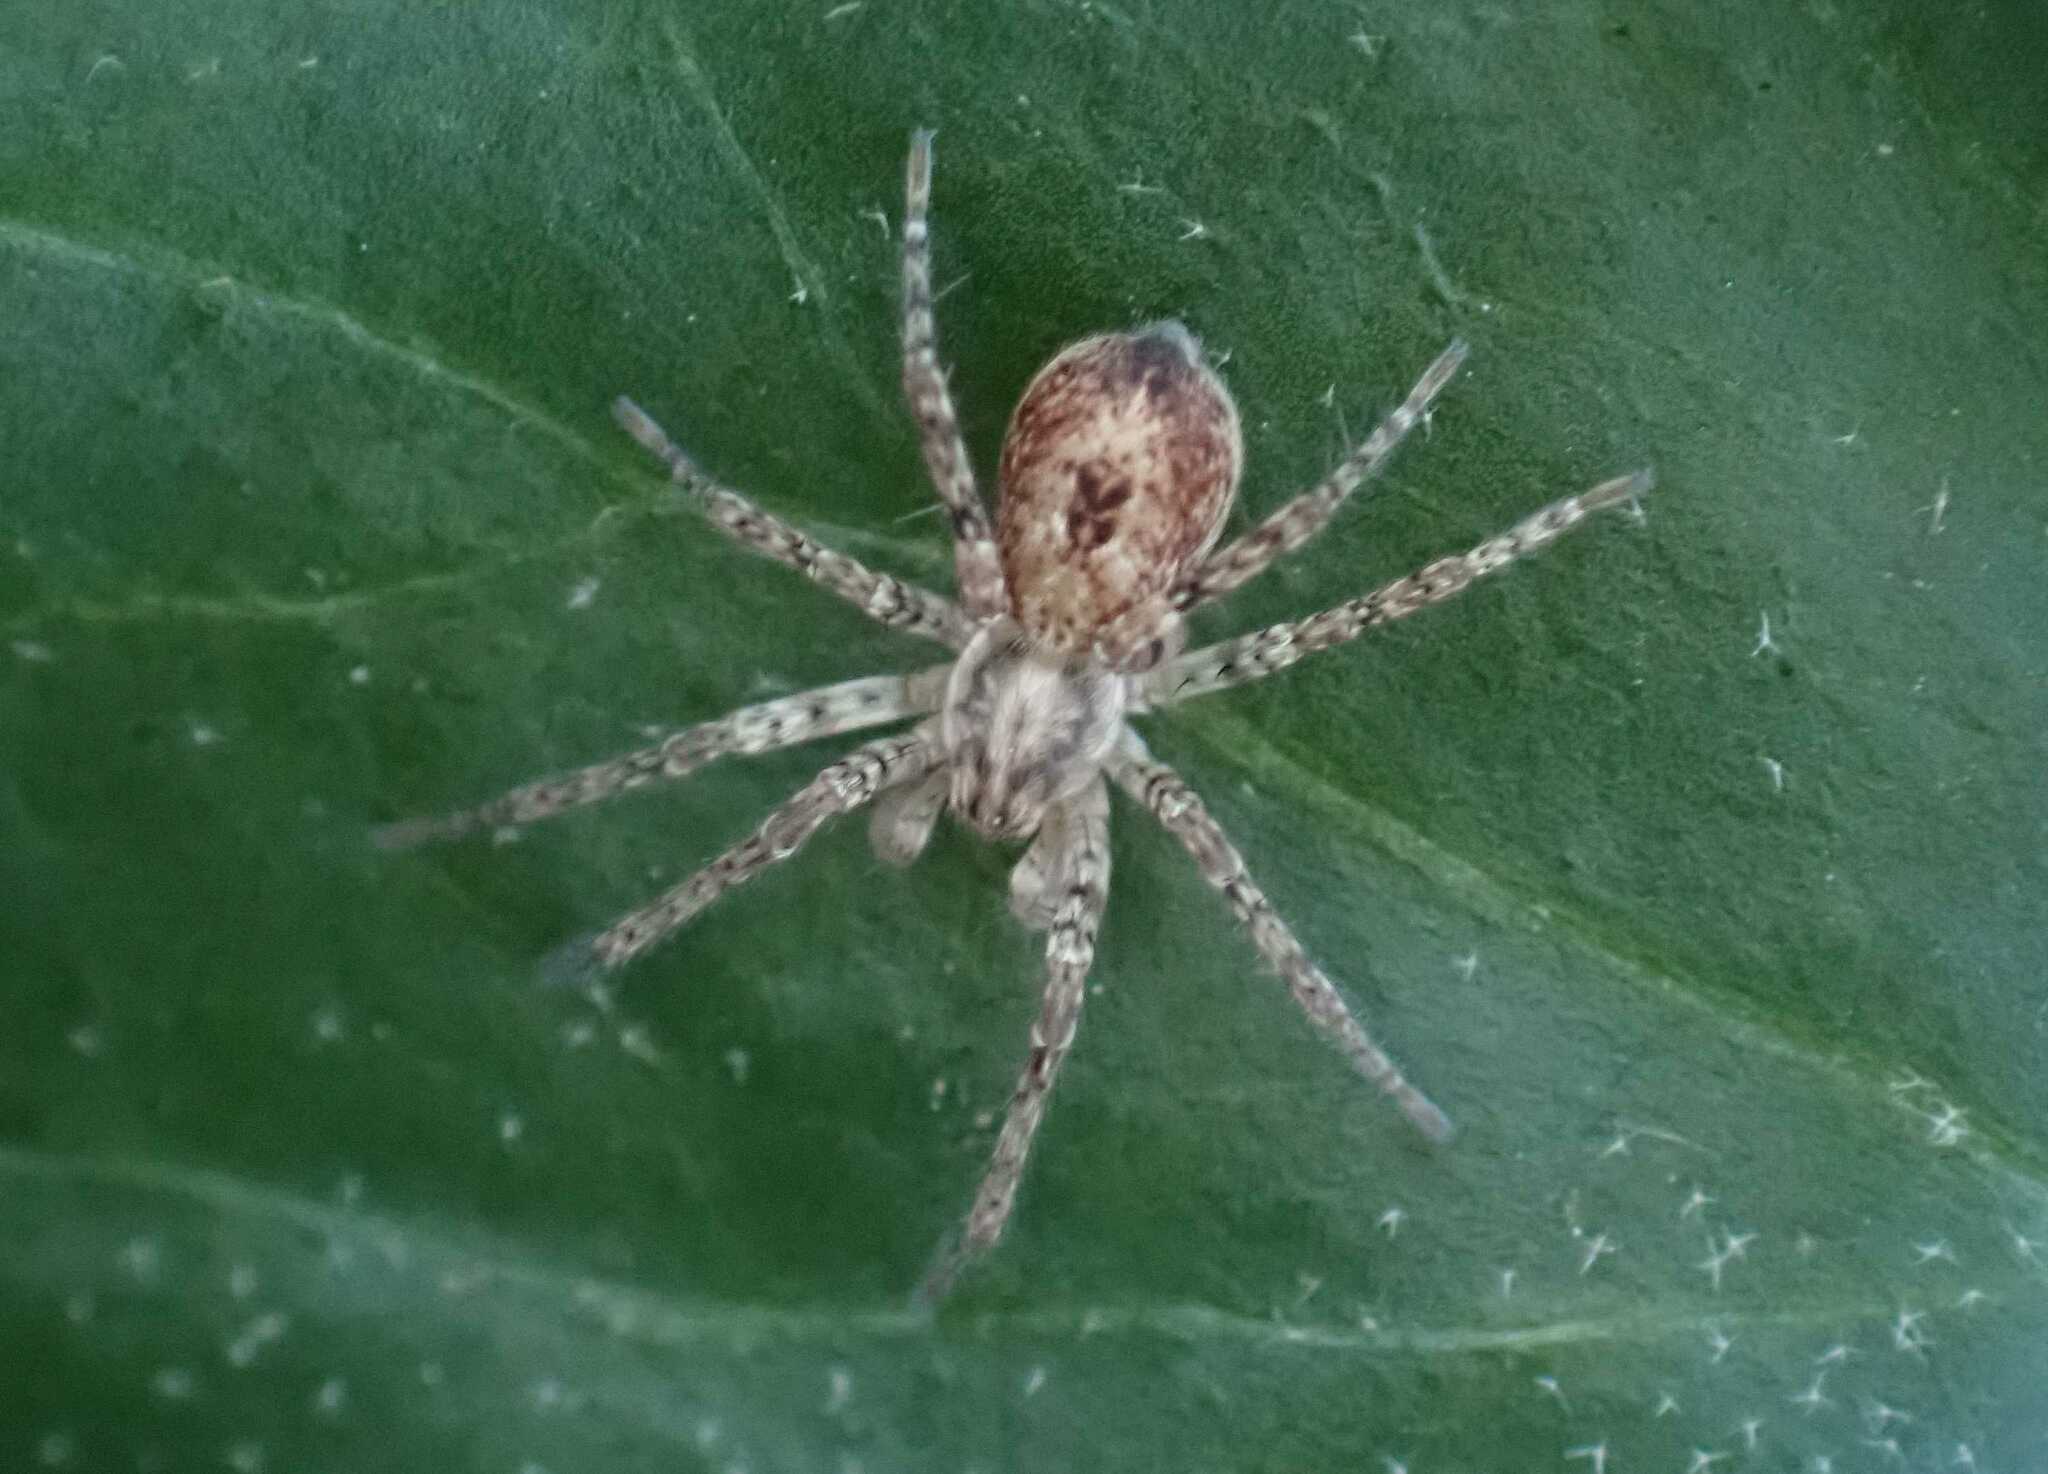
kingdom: Animalia
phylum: Arthropoda
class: Arachnida
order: Araneae
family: Anyphaenidae
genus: Anyphaena
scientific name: Anyphaena accentuata
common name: Buzzing spider
